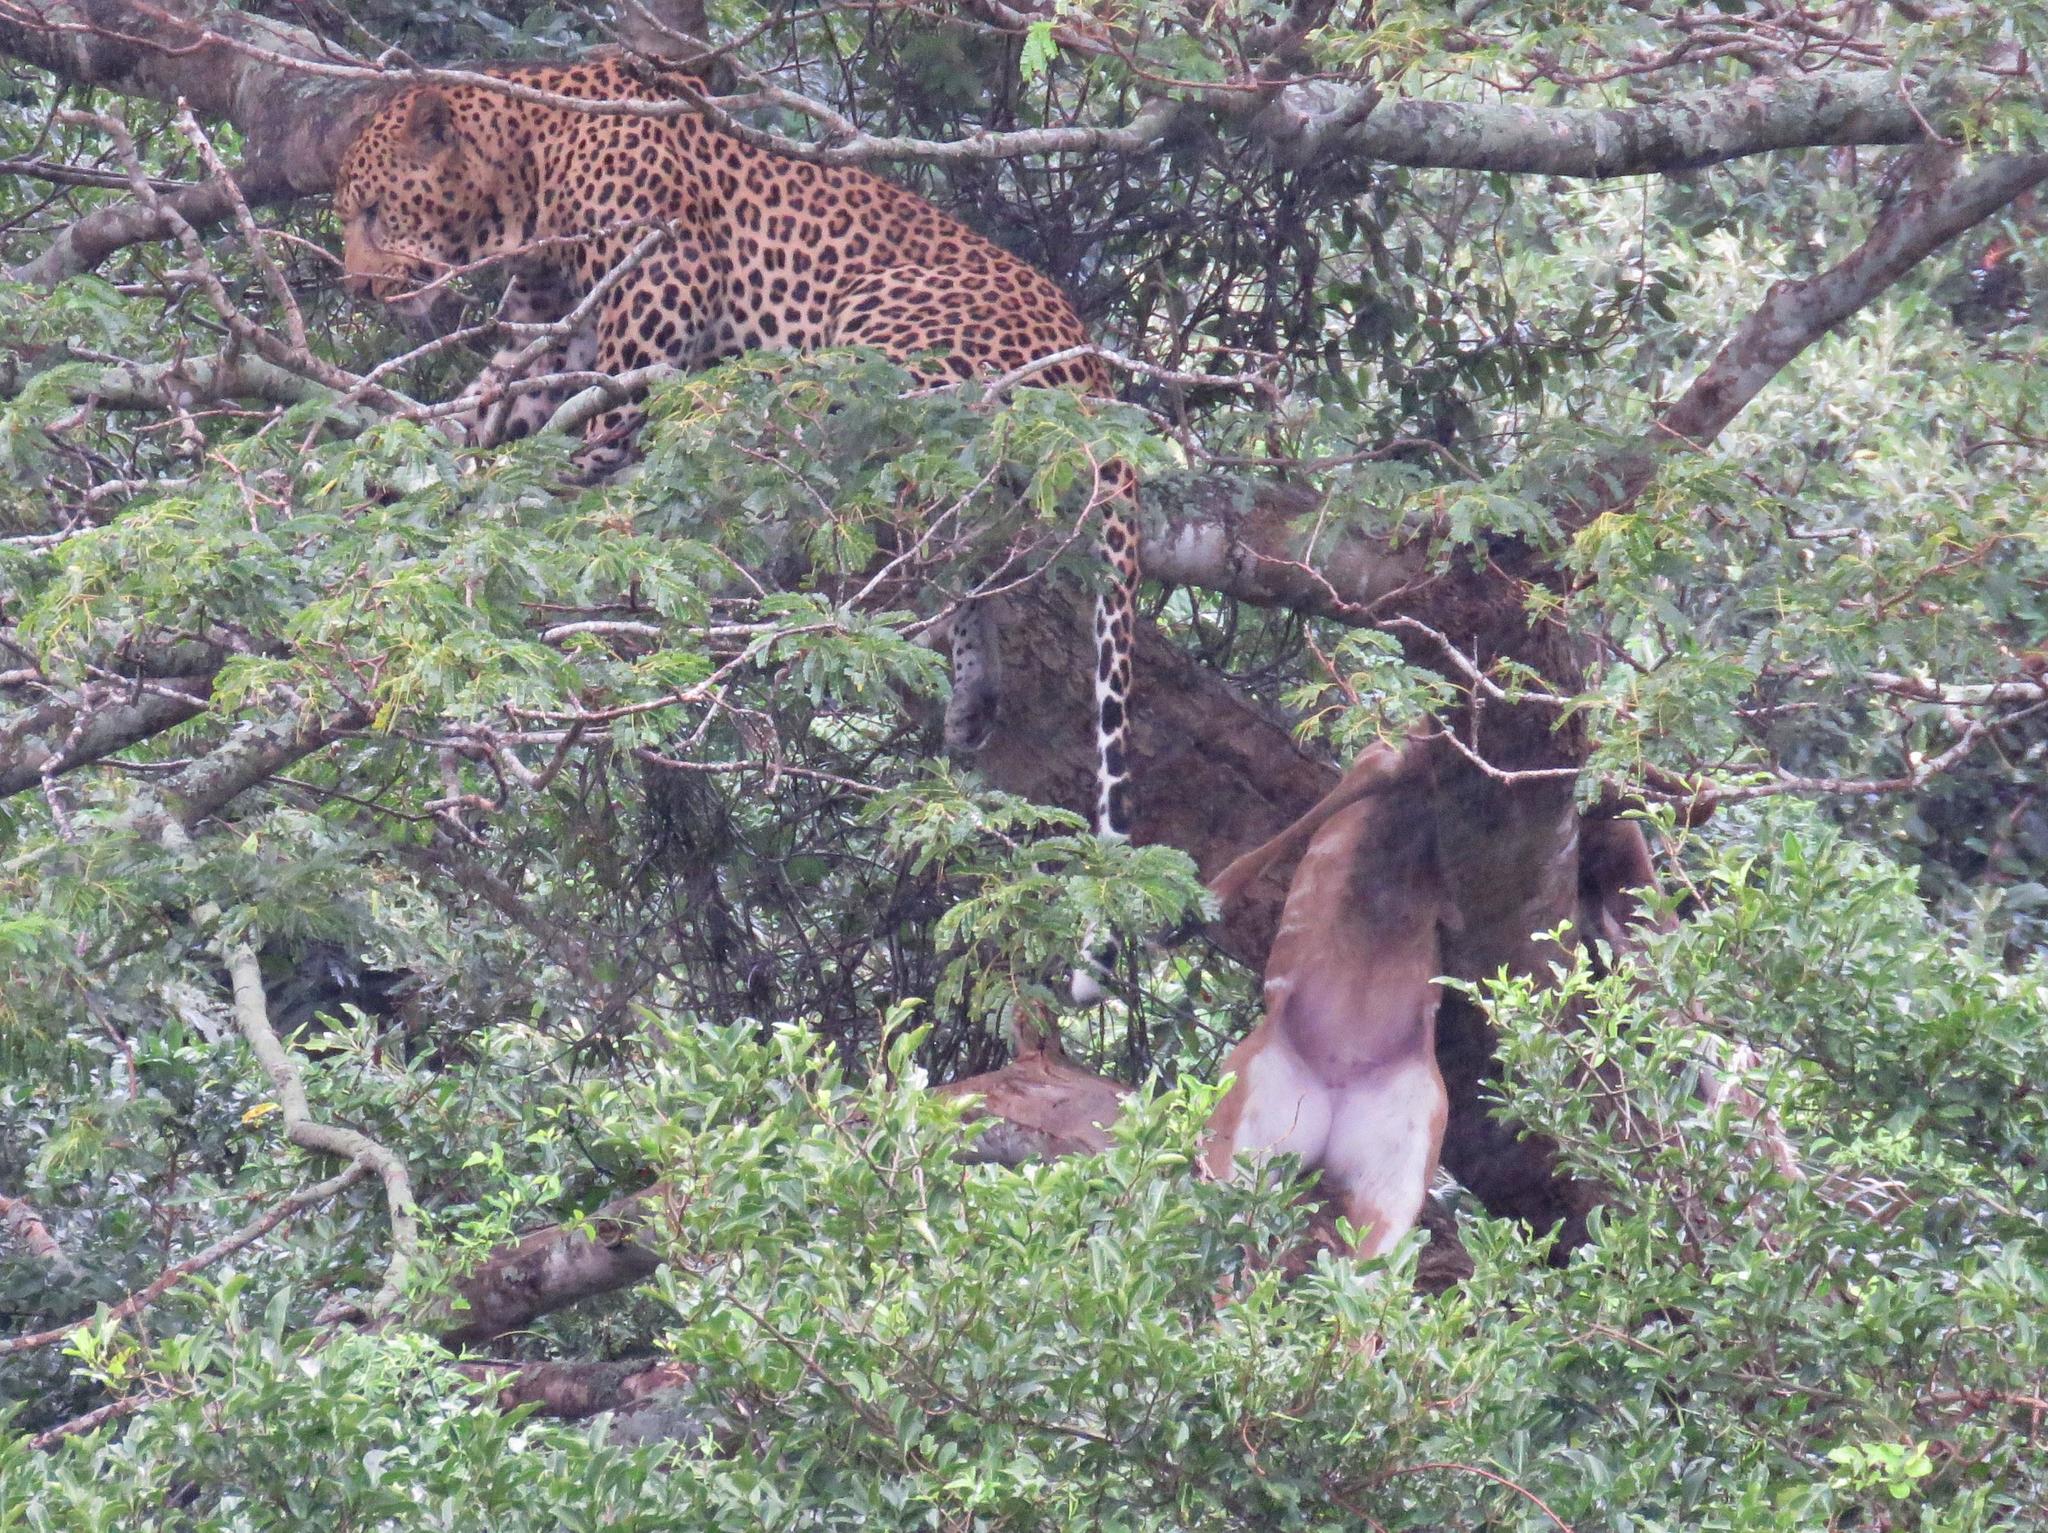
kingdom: Animalia
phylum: Chordata
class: Mammalia
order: Carnivora
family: Felidae
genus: Panthera
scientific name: Panthera pardus
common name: Leopard
